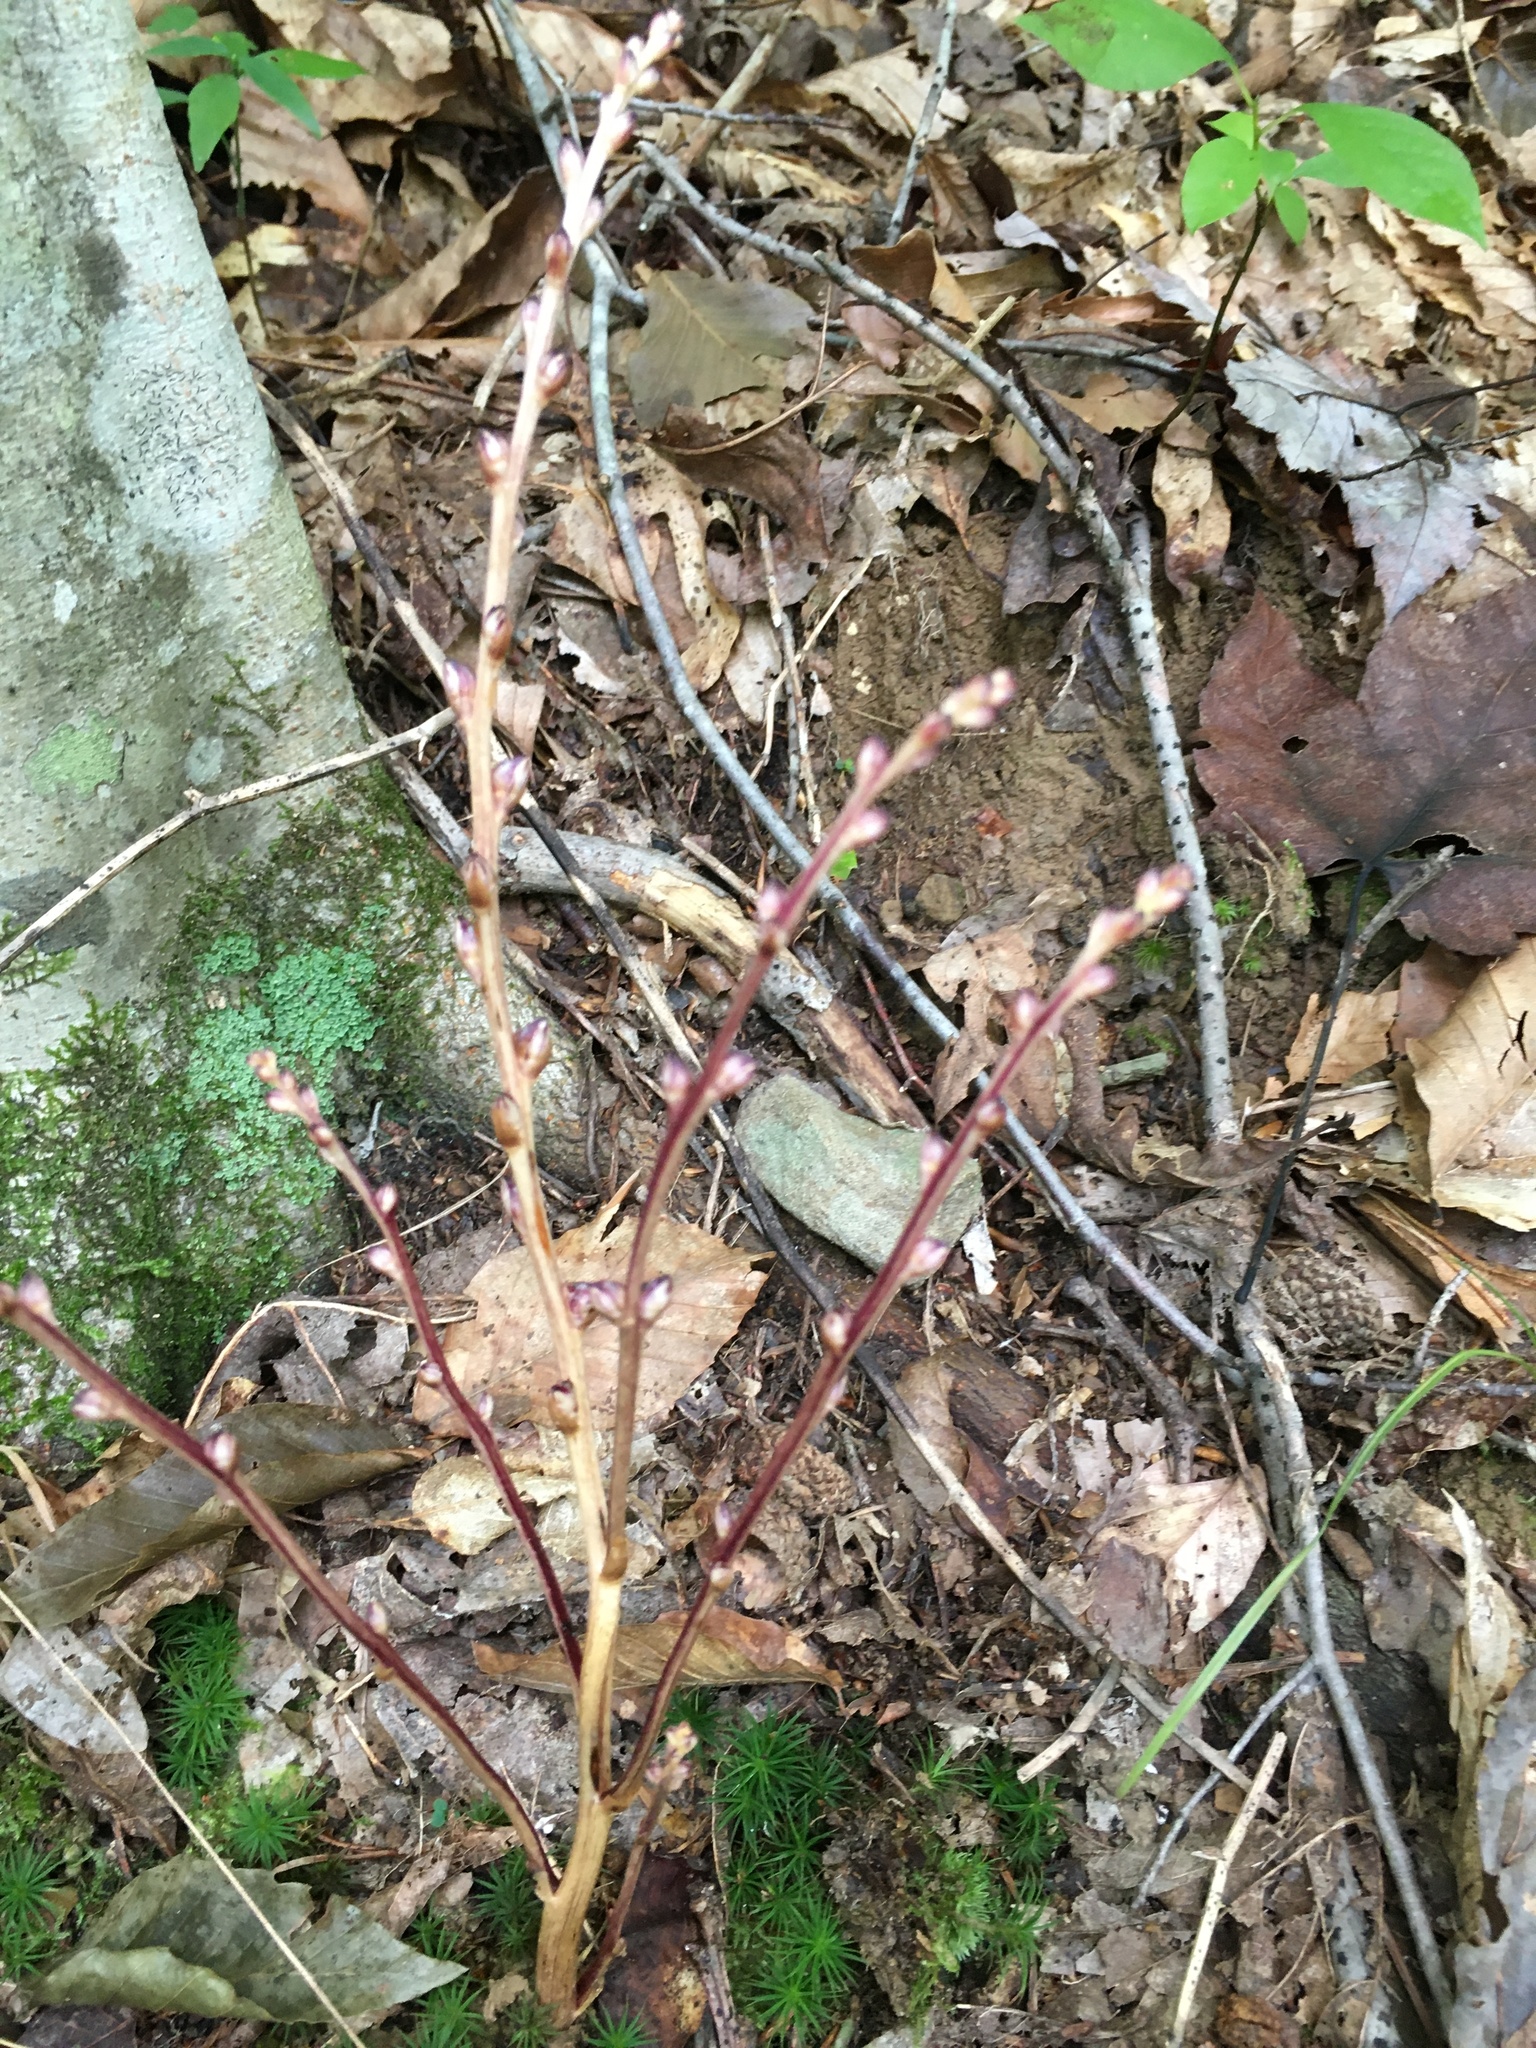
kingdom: Plantae
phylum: Tracheophyta
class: Magnoliopsida
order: Lamiales
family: Orobanchaceae
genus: Epifagus
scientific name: Epifagus virginiana
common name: Beechdrops
